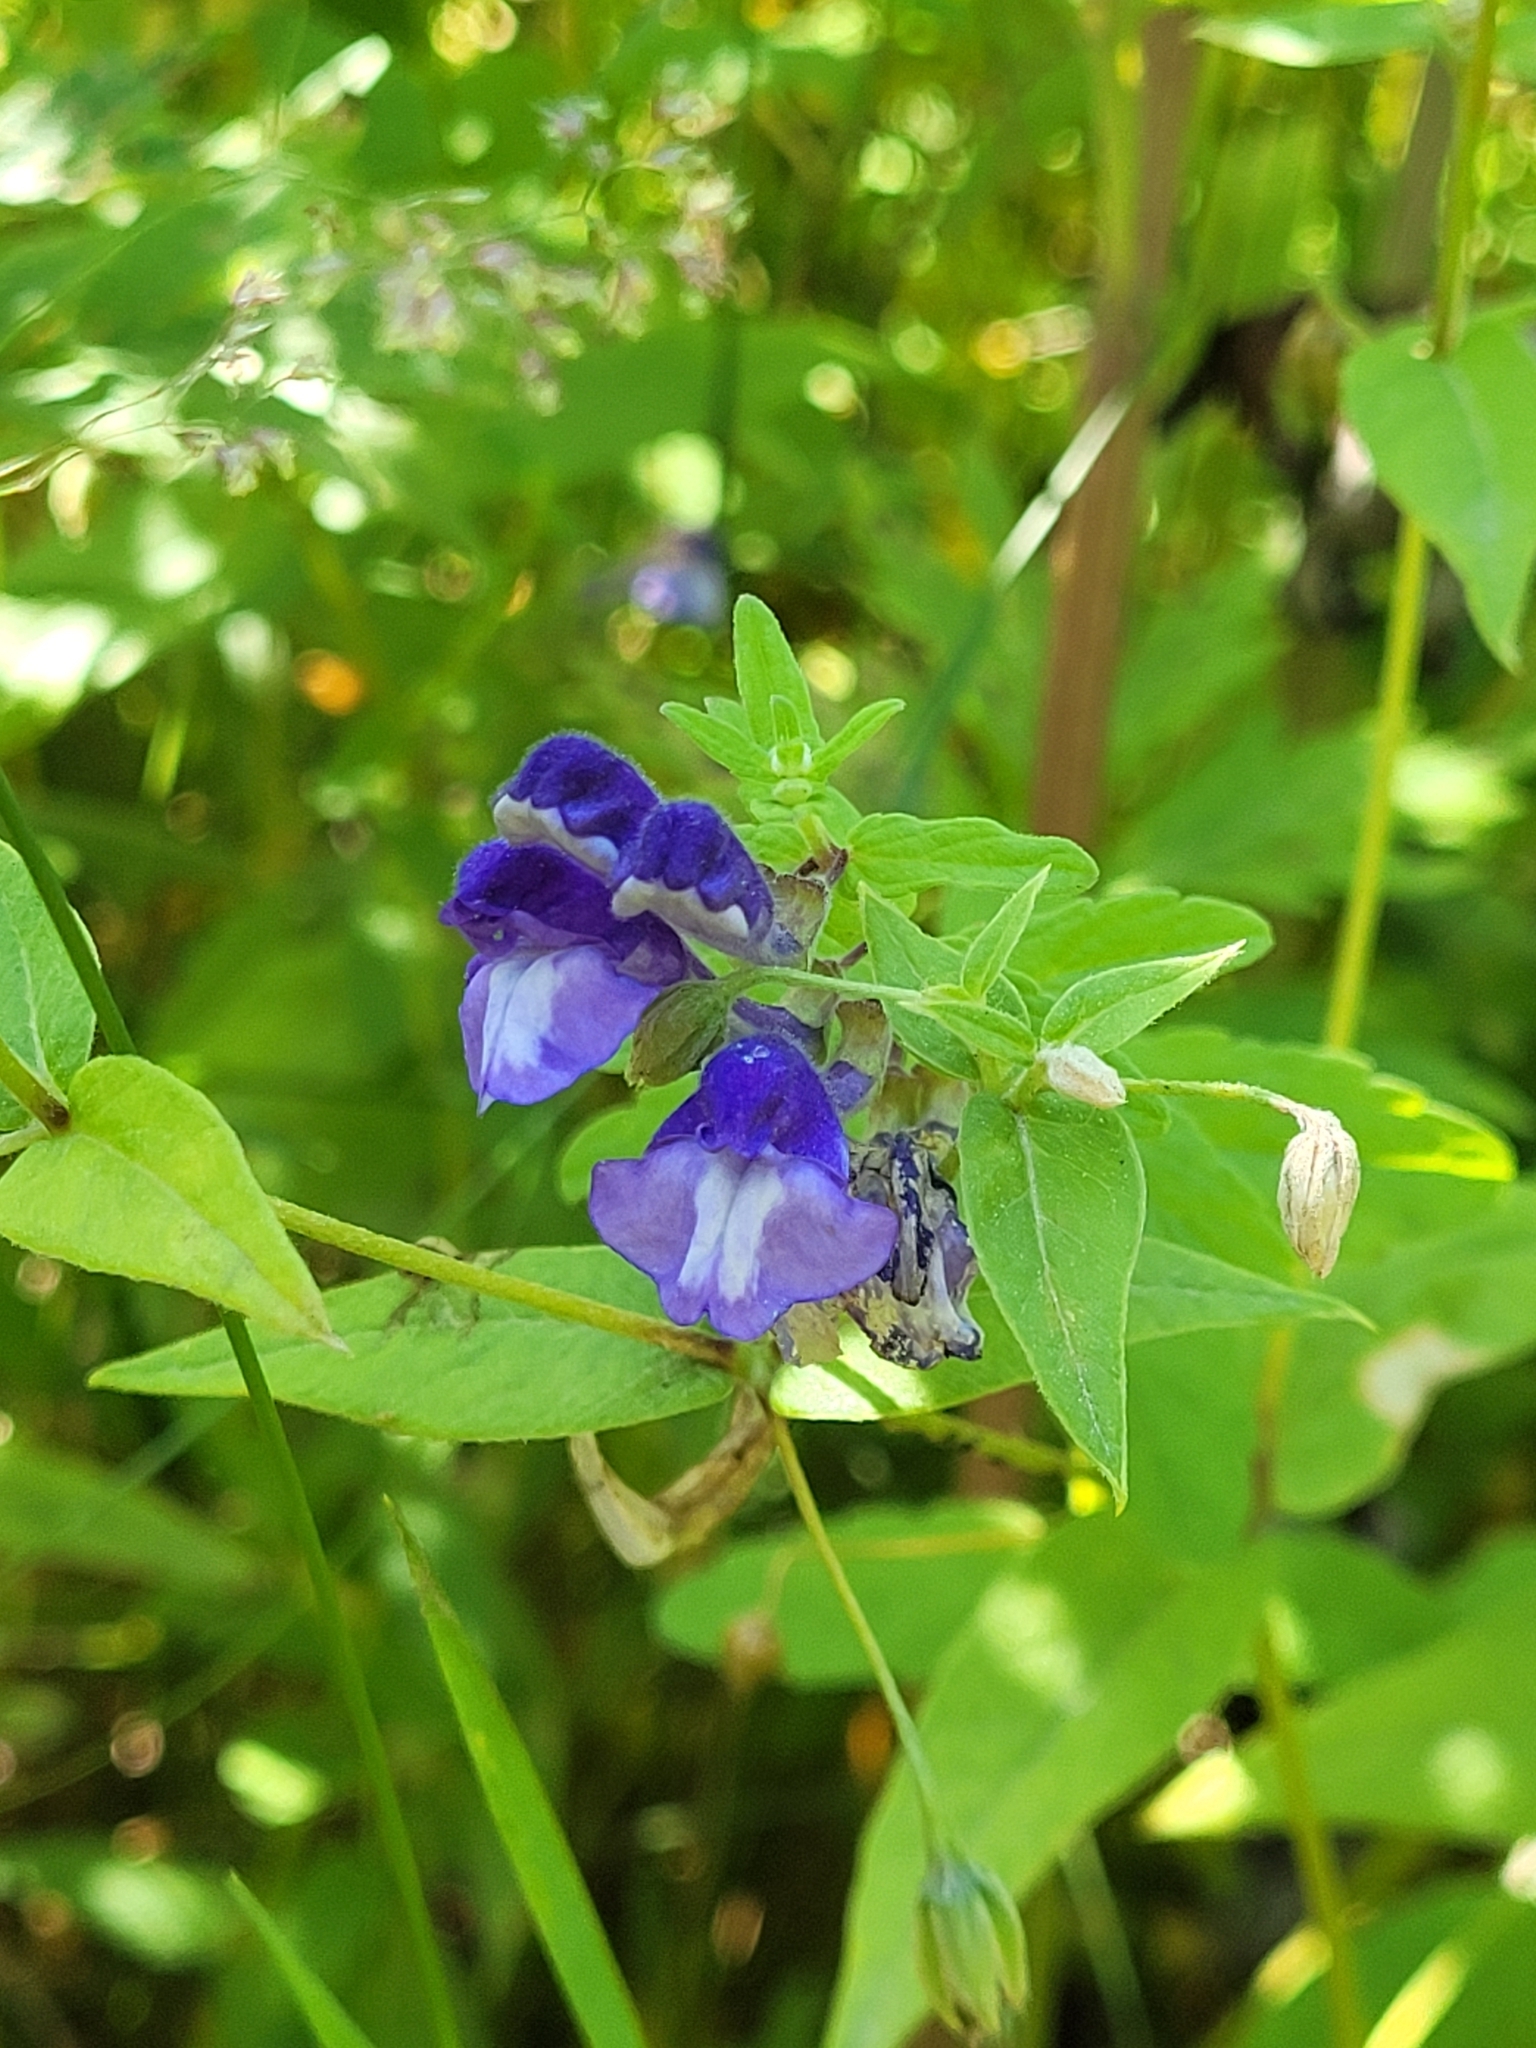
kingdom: Plantae
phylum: Tracheophyta
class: Magnoliopsida
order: Lamiales
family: Lamiaceae
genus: Scutellaria
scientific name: Scutellaria strigillosa
